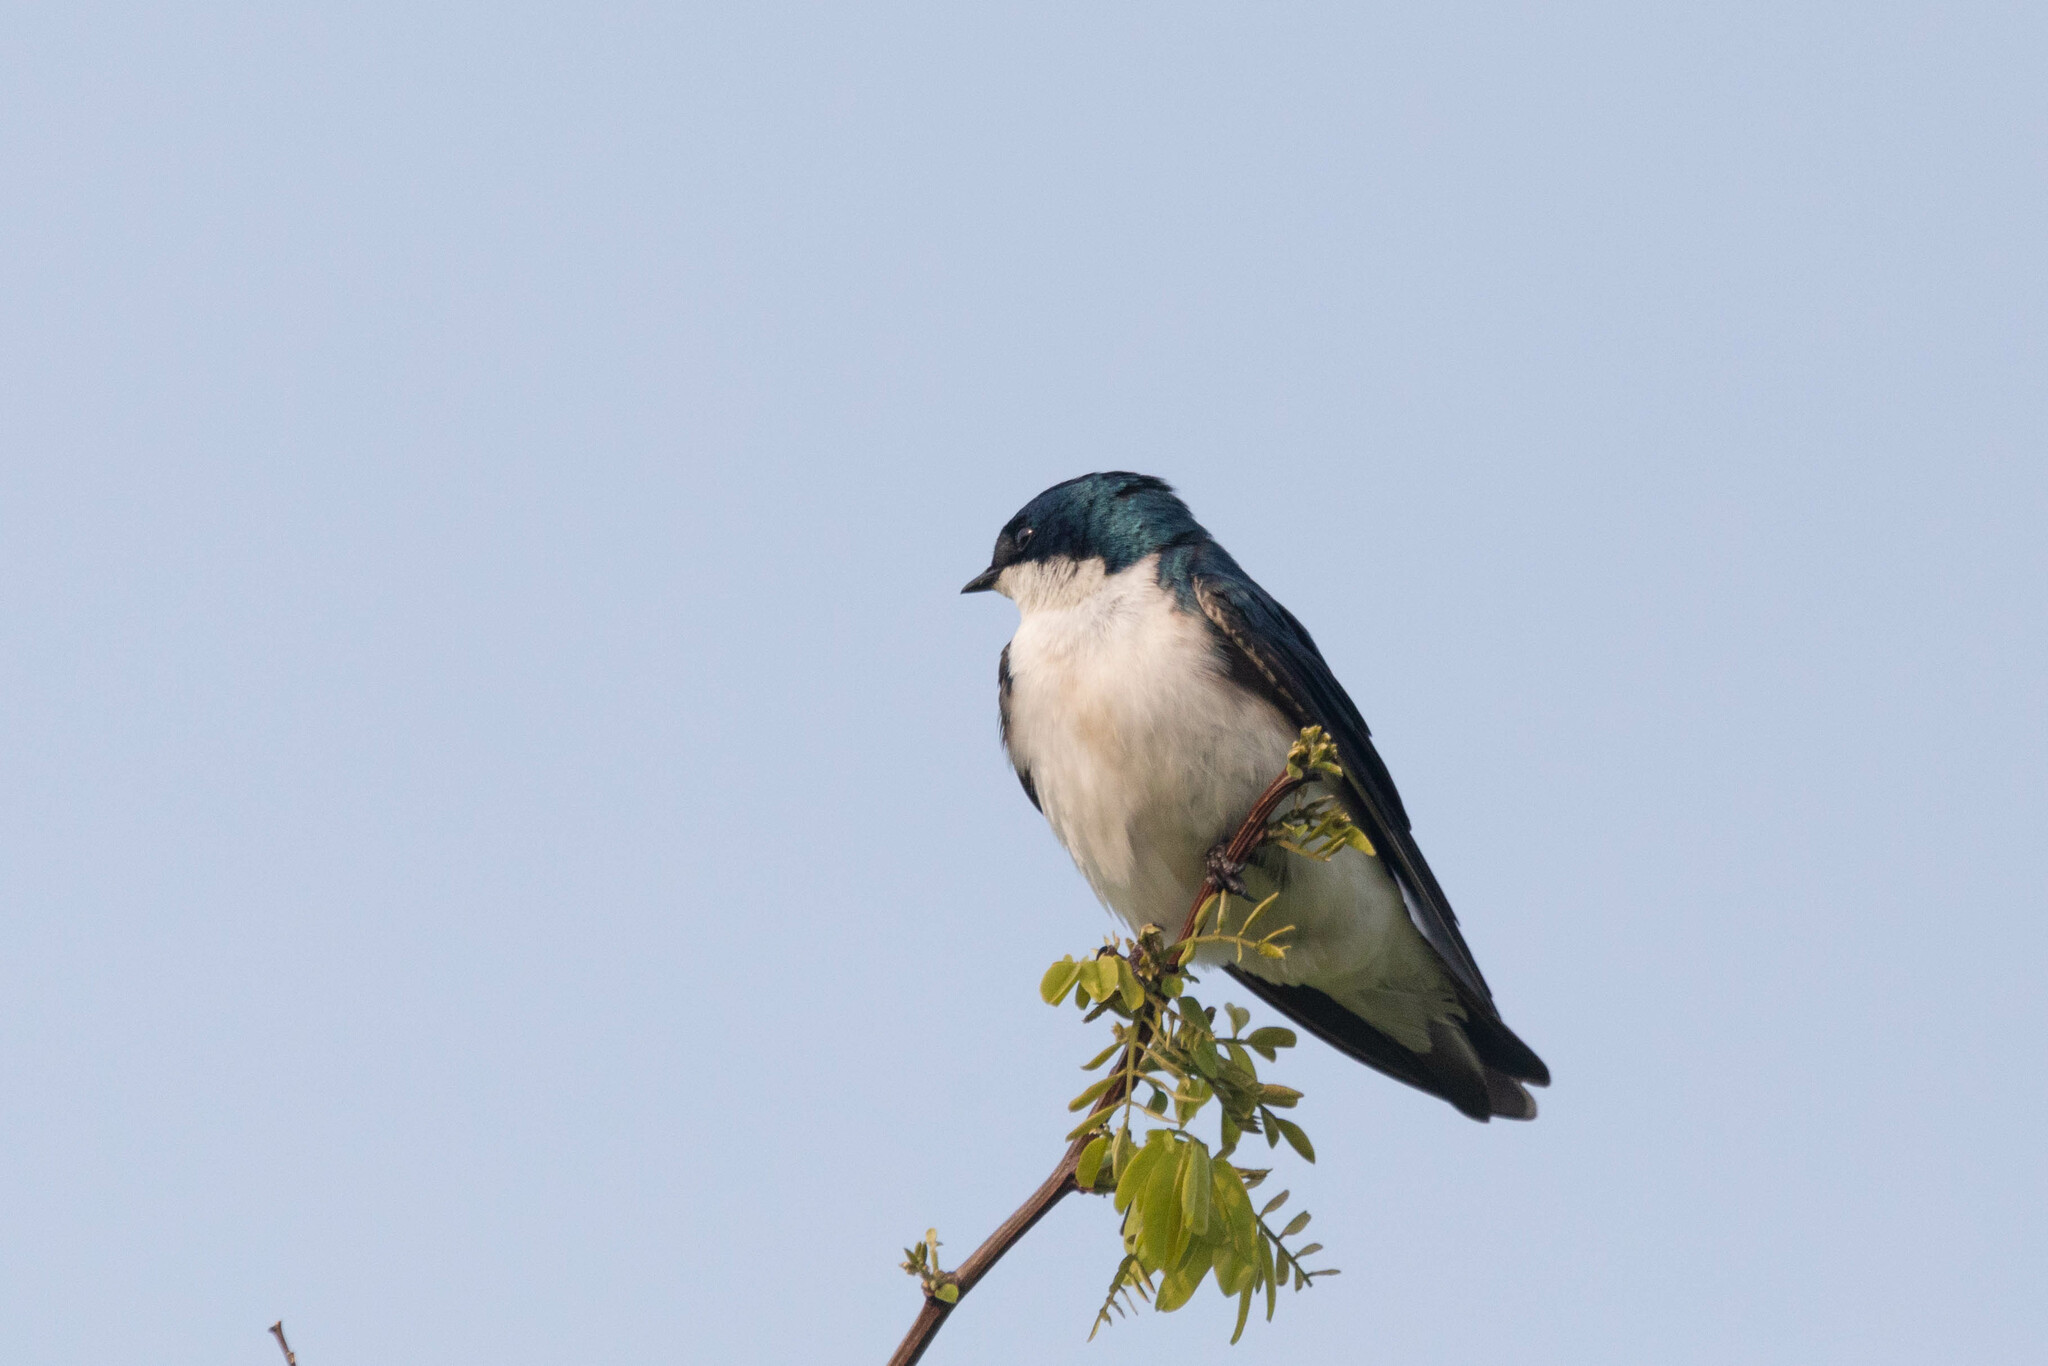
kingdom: Animalia
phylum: Chordata
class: Aves
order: Passeriformes
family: Hirundinidae
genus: Tachycineta
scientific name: Tachycineta bicolor
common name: Tree swallow
